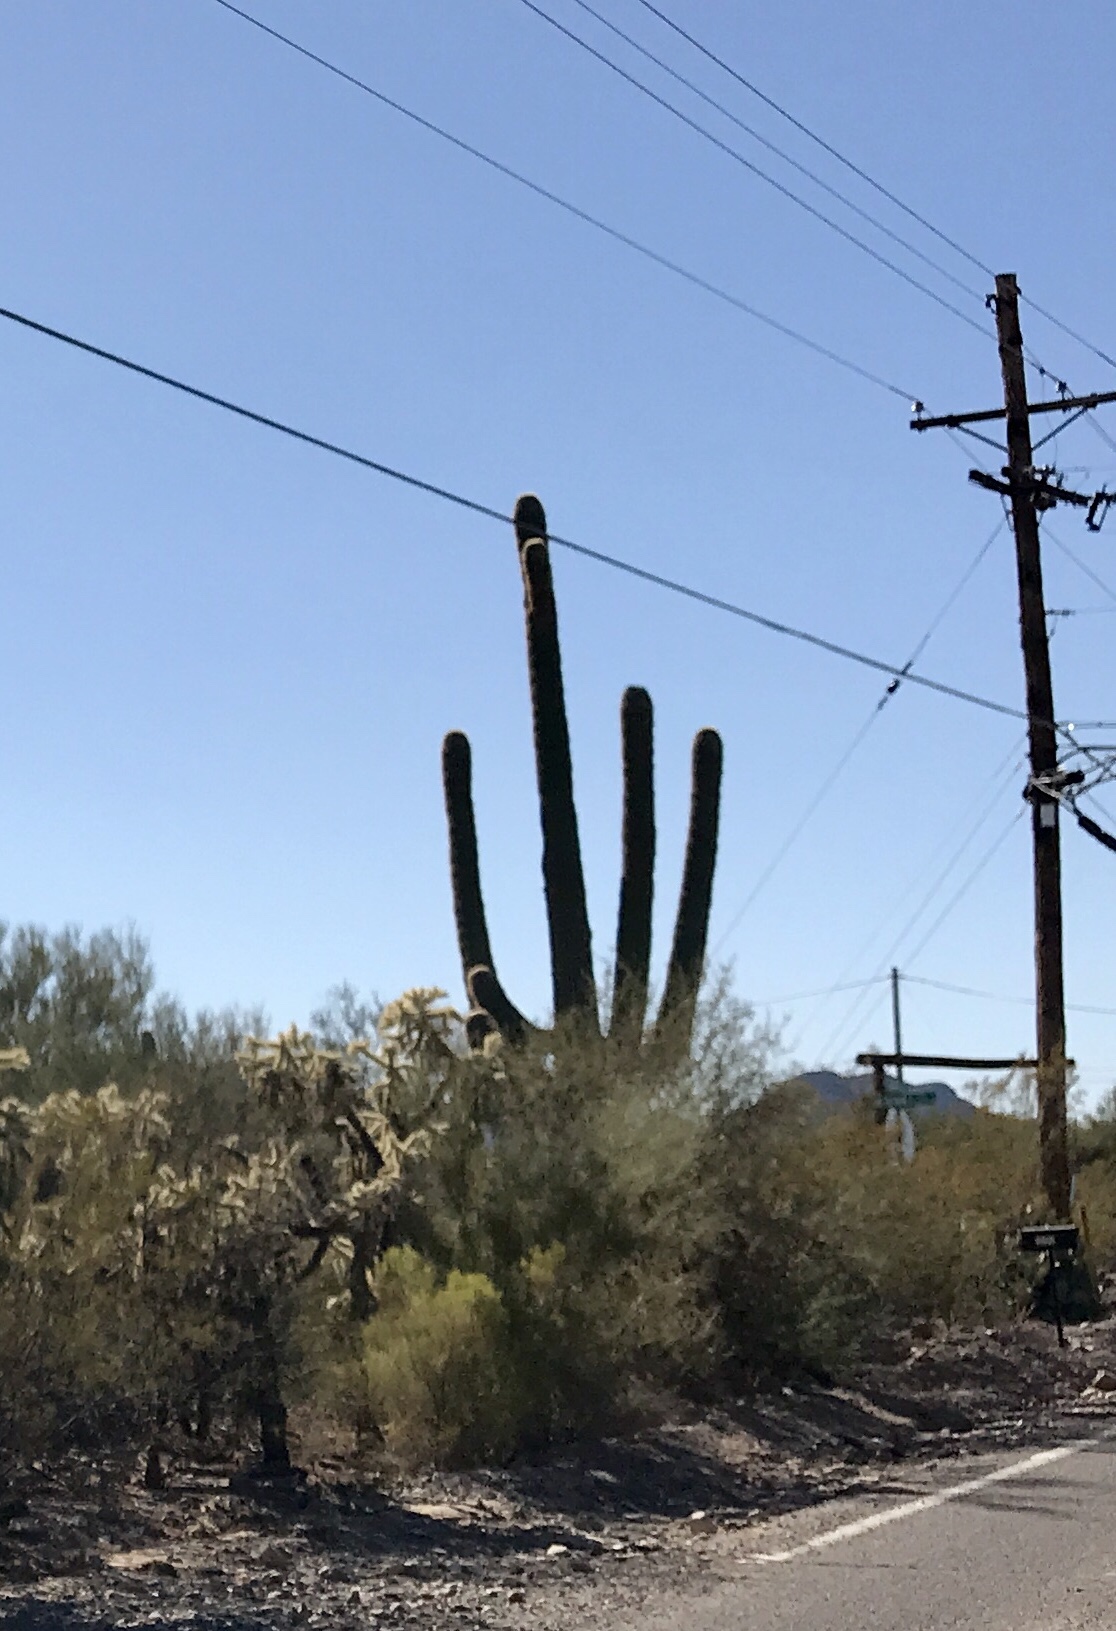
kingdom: Plantae
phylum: Tracheophyta
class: Magnoliopsida
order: Caryophyllales
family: Cactaceae
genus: Carnegiea
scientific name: Carnegiea gigantea
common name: Saguaro
